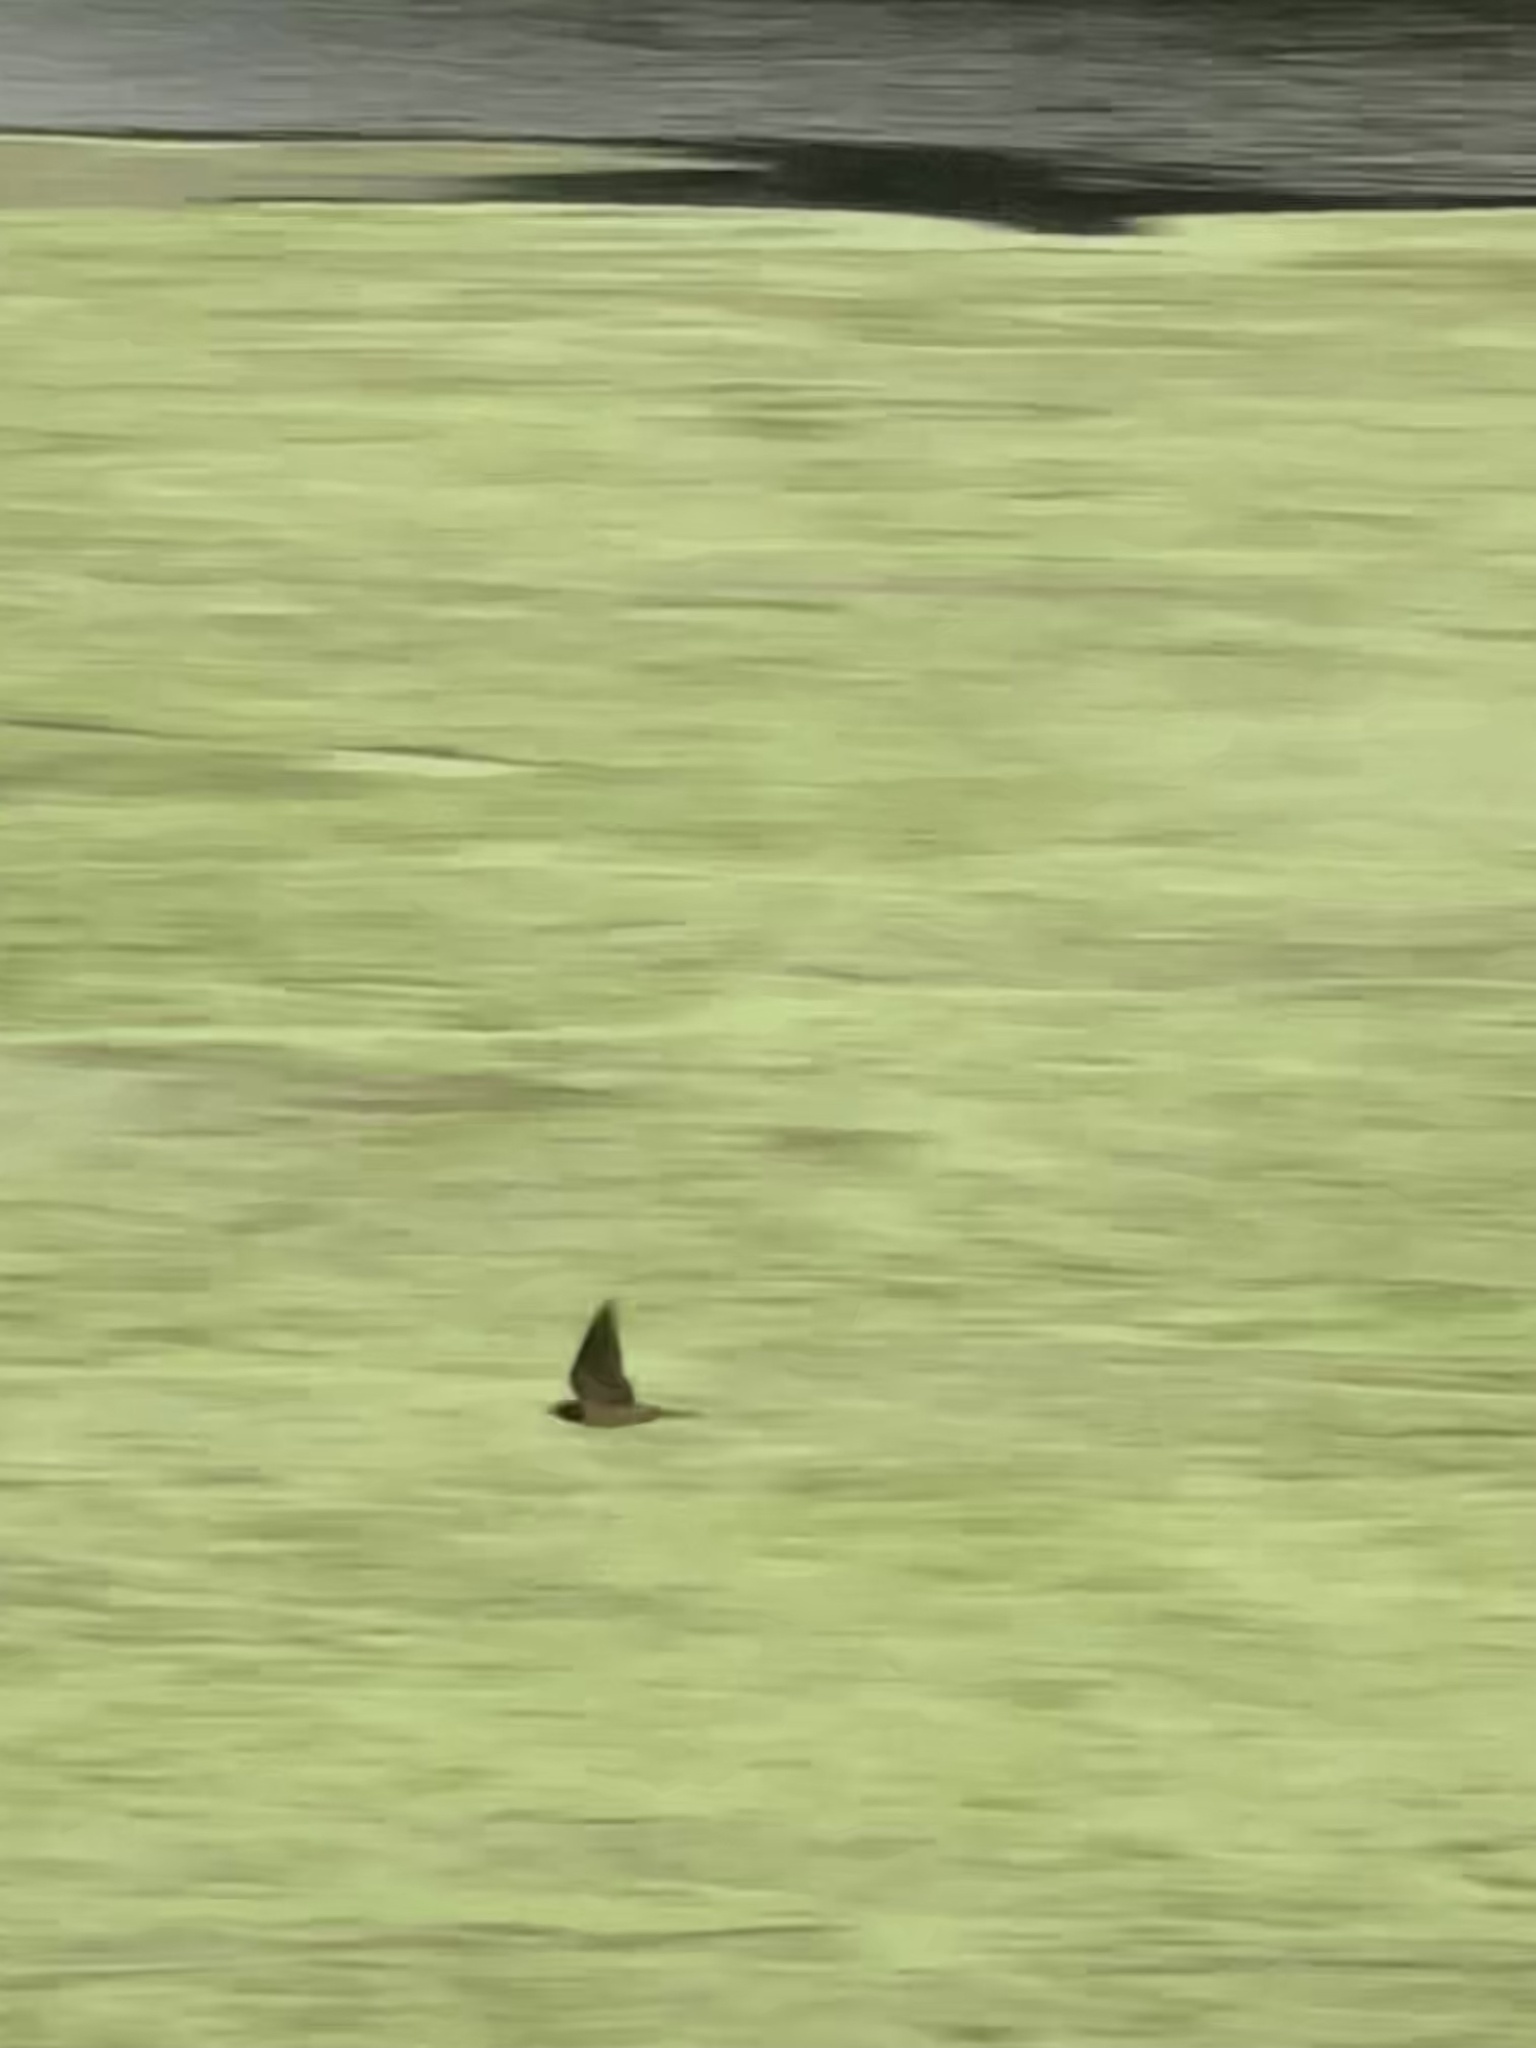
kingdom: Animalia
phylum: Chordata
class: Aves
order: Passeriformes
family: Hirundinidae
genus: Hirundo
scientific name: Hirundo rustica
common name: Barn swallow
